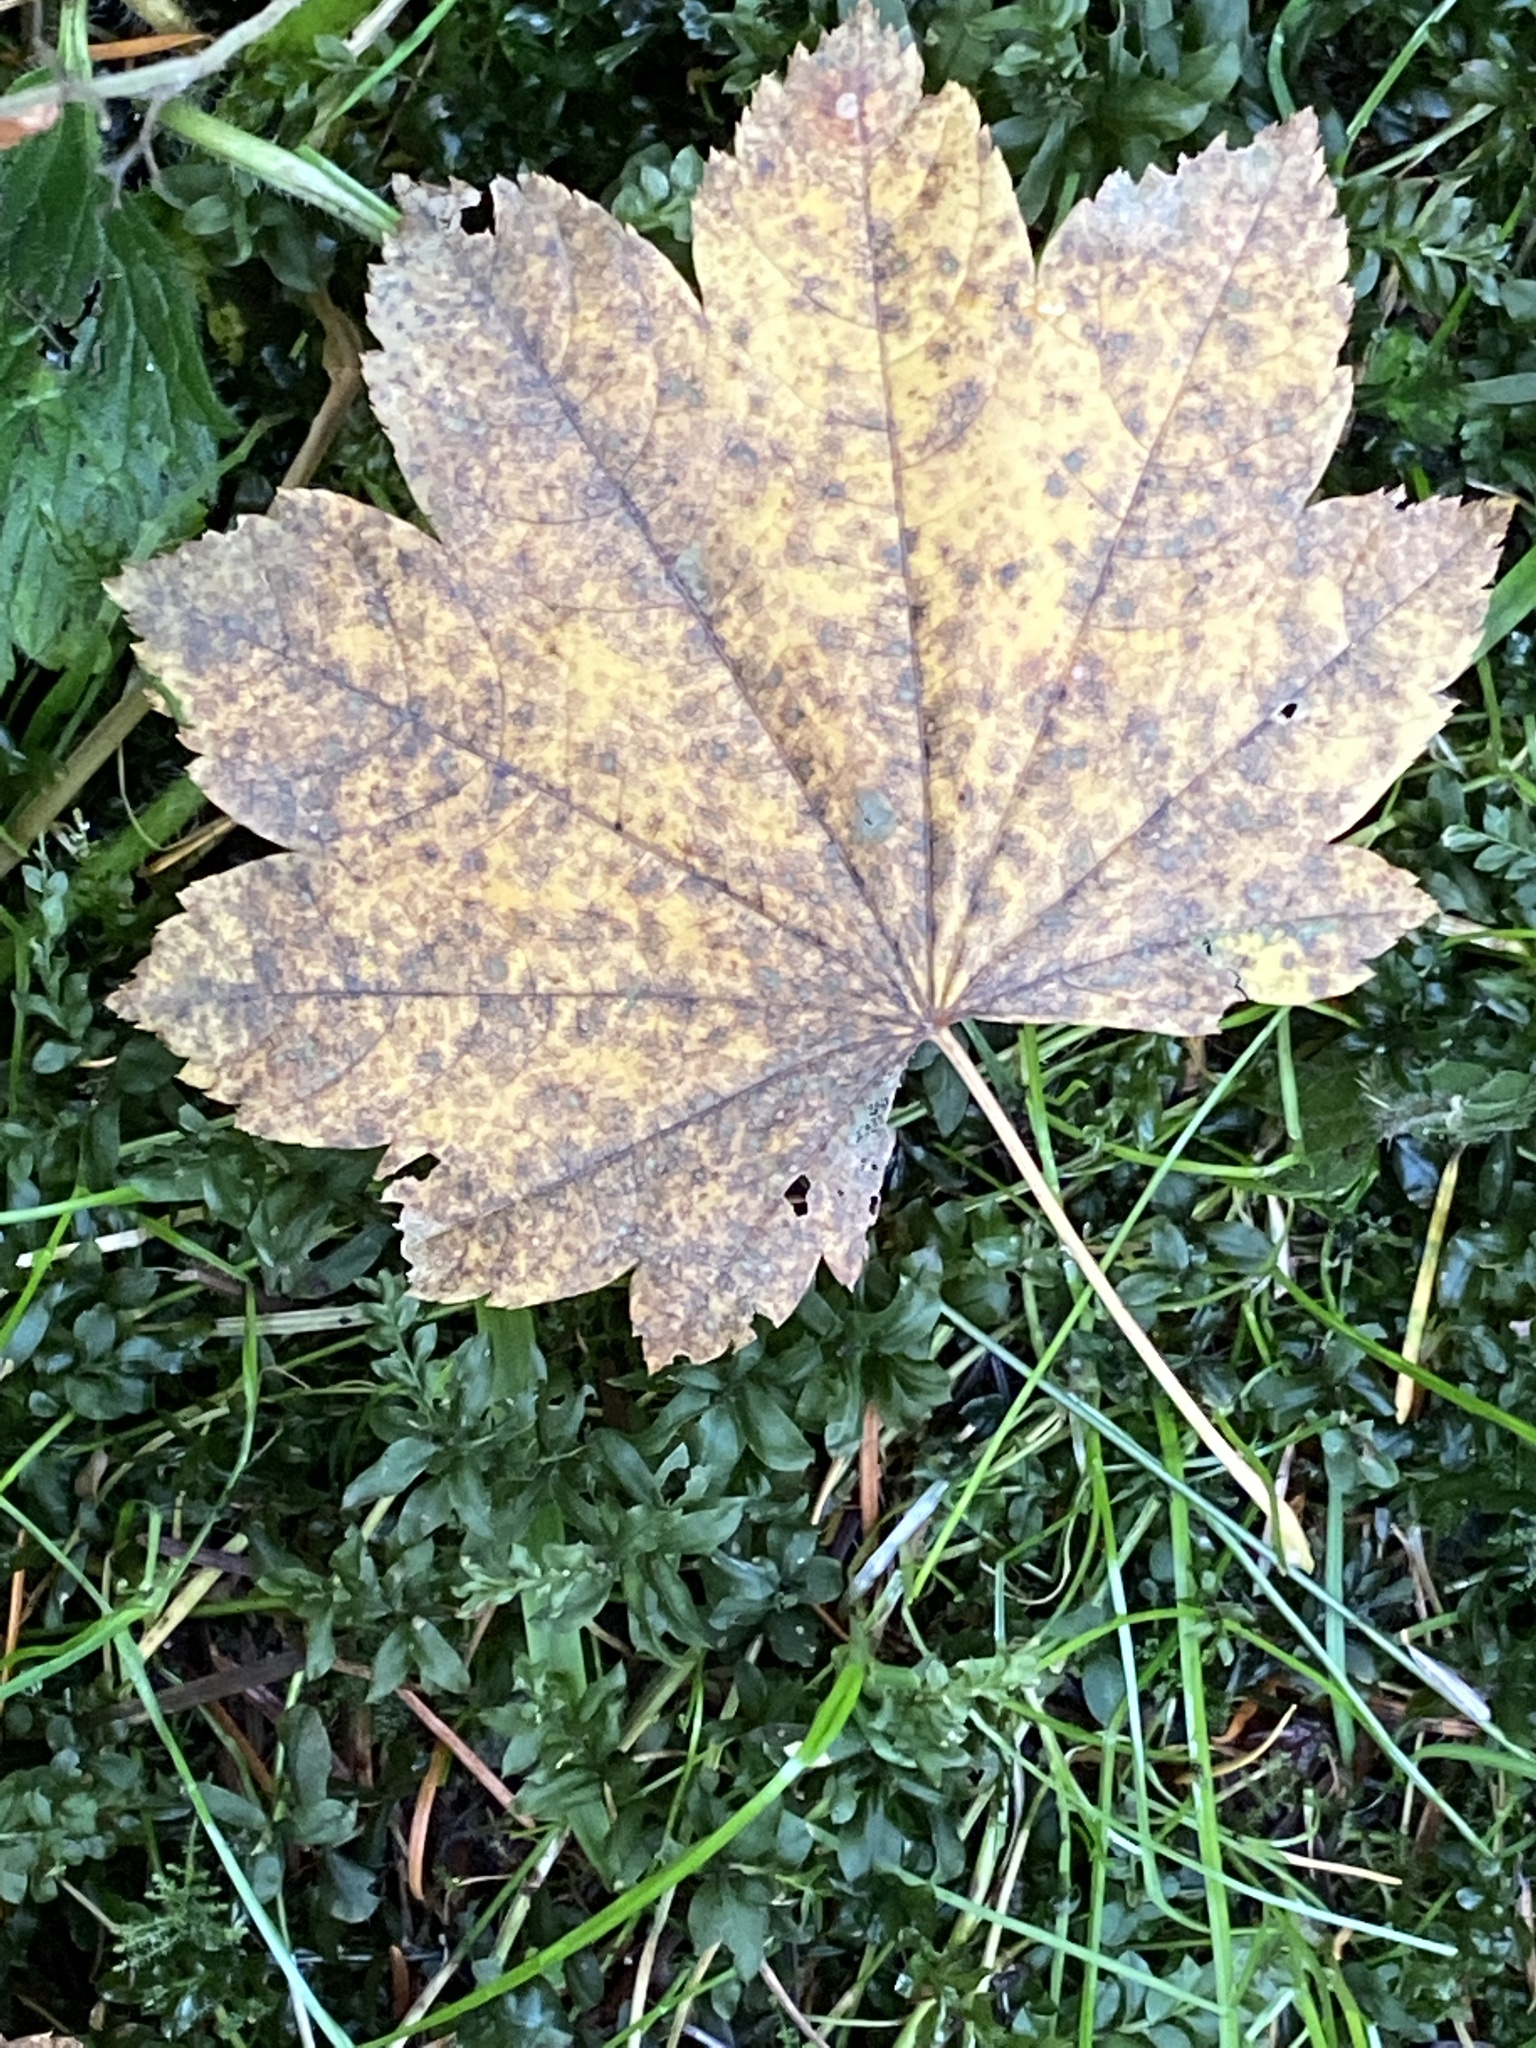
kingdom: Plantae
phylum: Tracheophyta
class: Magnoliopsida
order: Sapindales
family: Sapindaceae
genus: Acer
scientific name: Acer circinatum
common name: Vine maple
